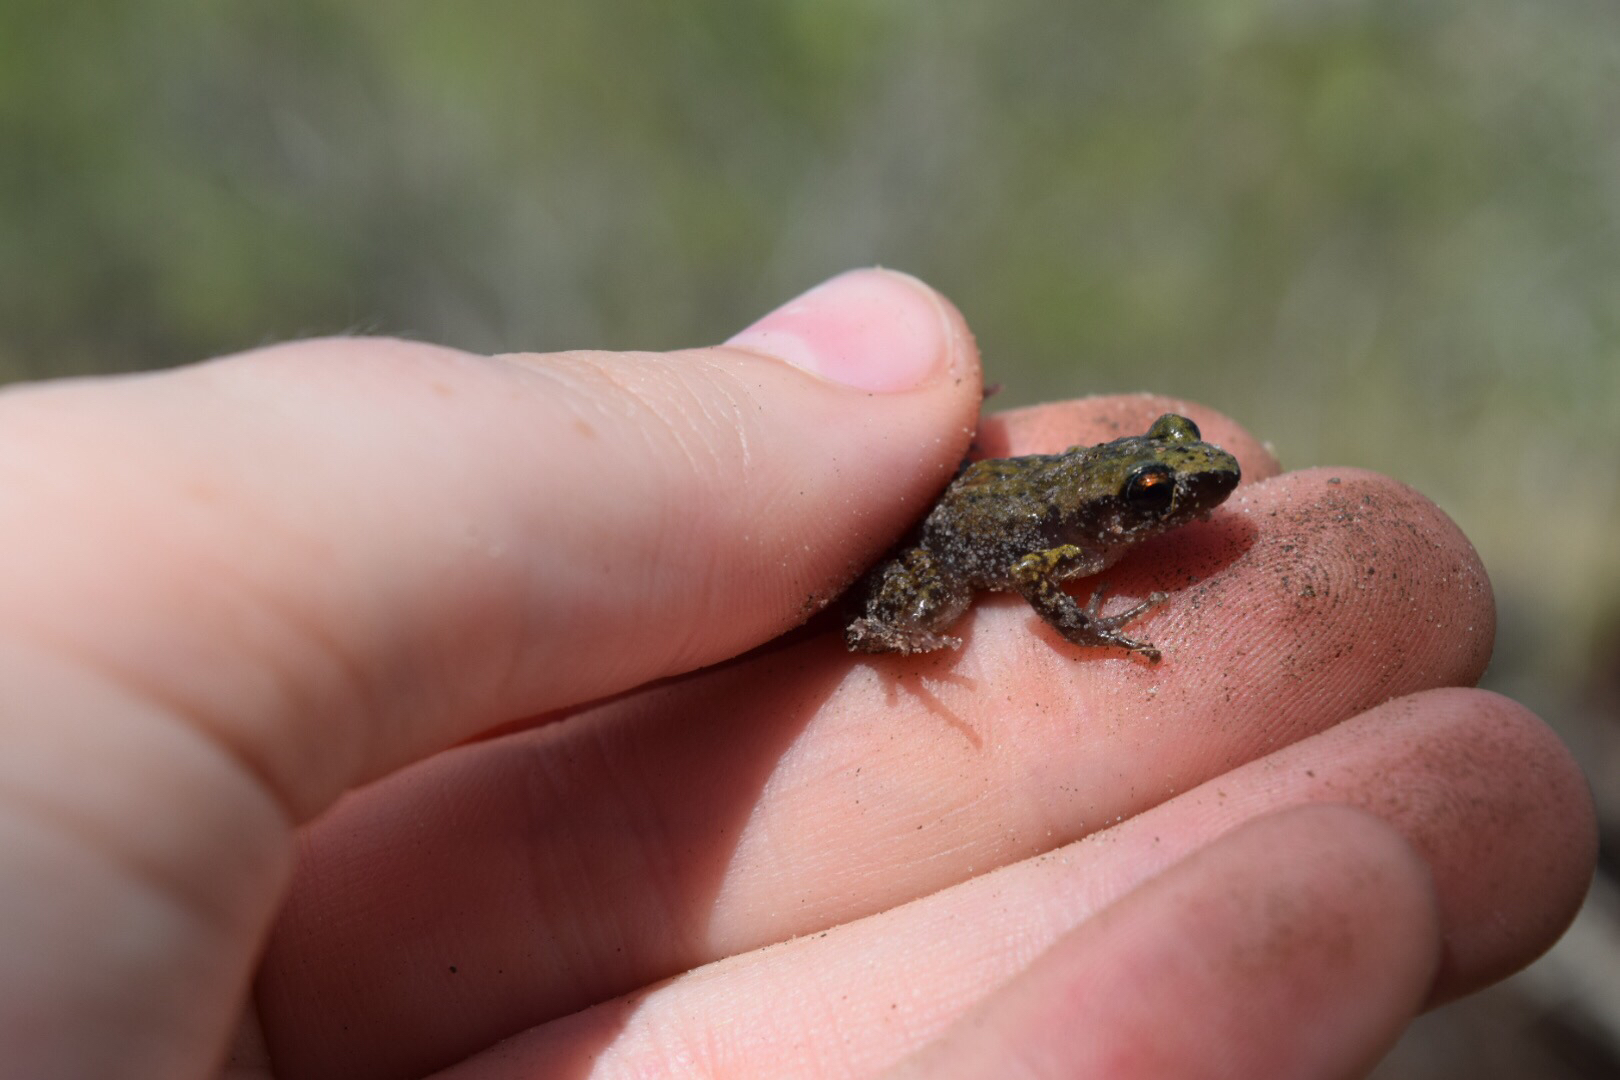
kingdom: Animalia
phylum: Chordata
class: Amphibia
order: Anura
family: Eleutherodactylidae
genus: Eleutherodactylus
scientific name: Eleutherodactylus campi
